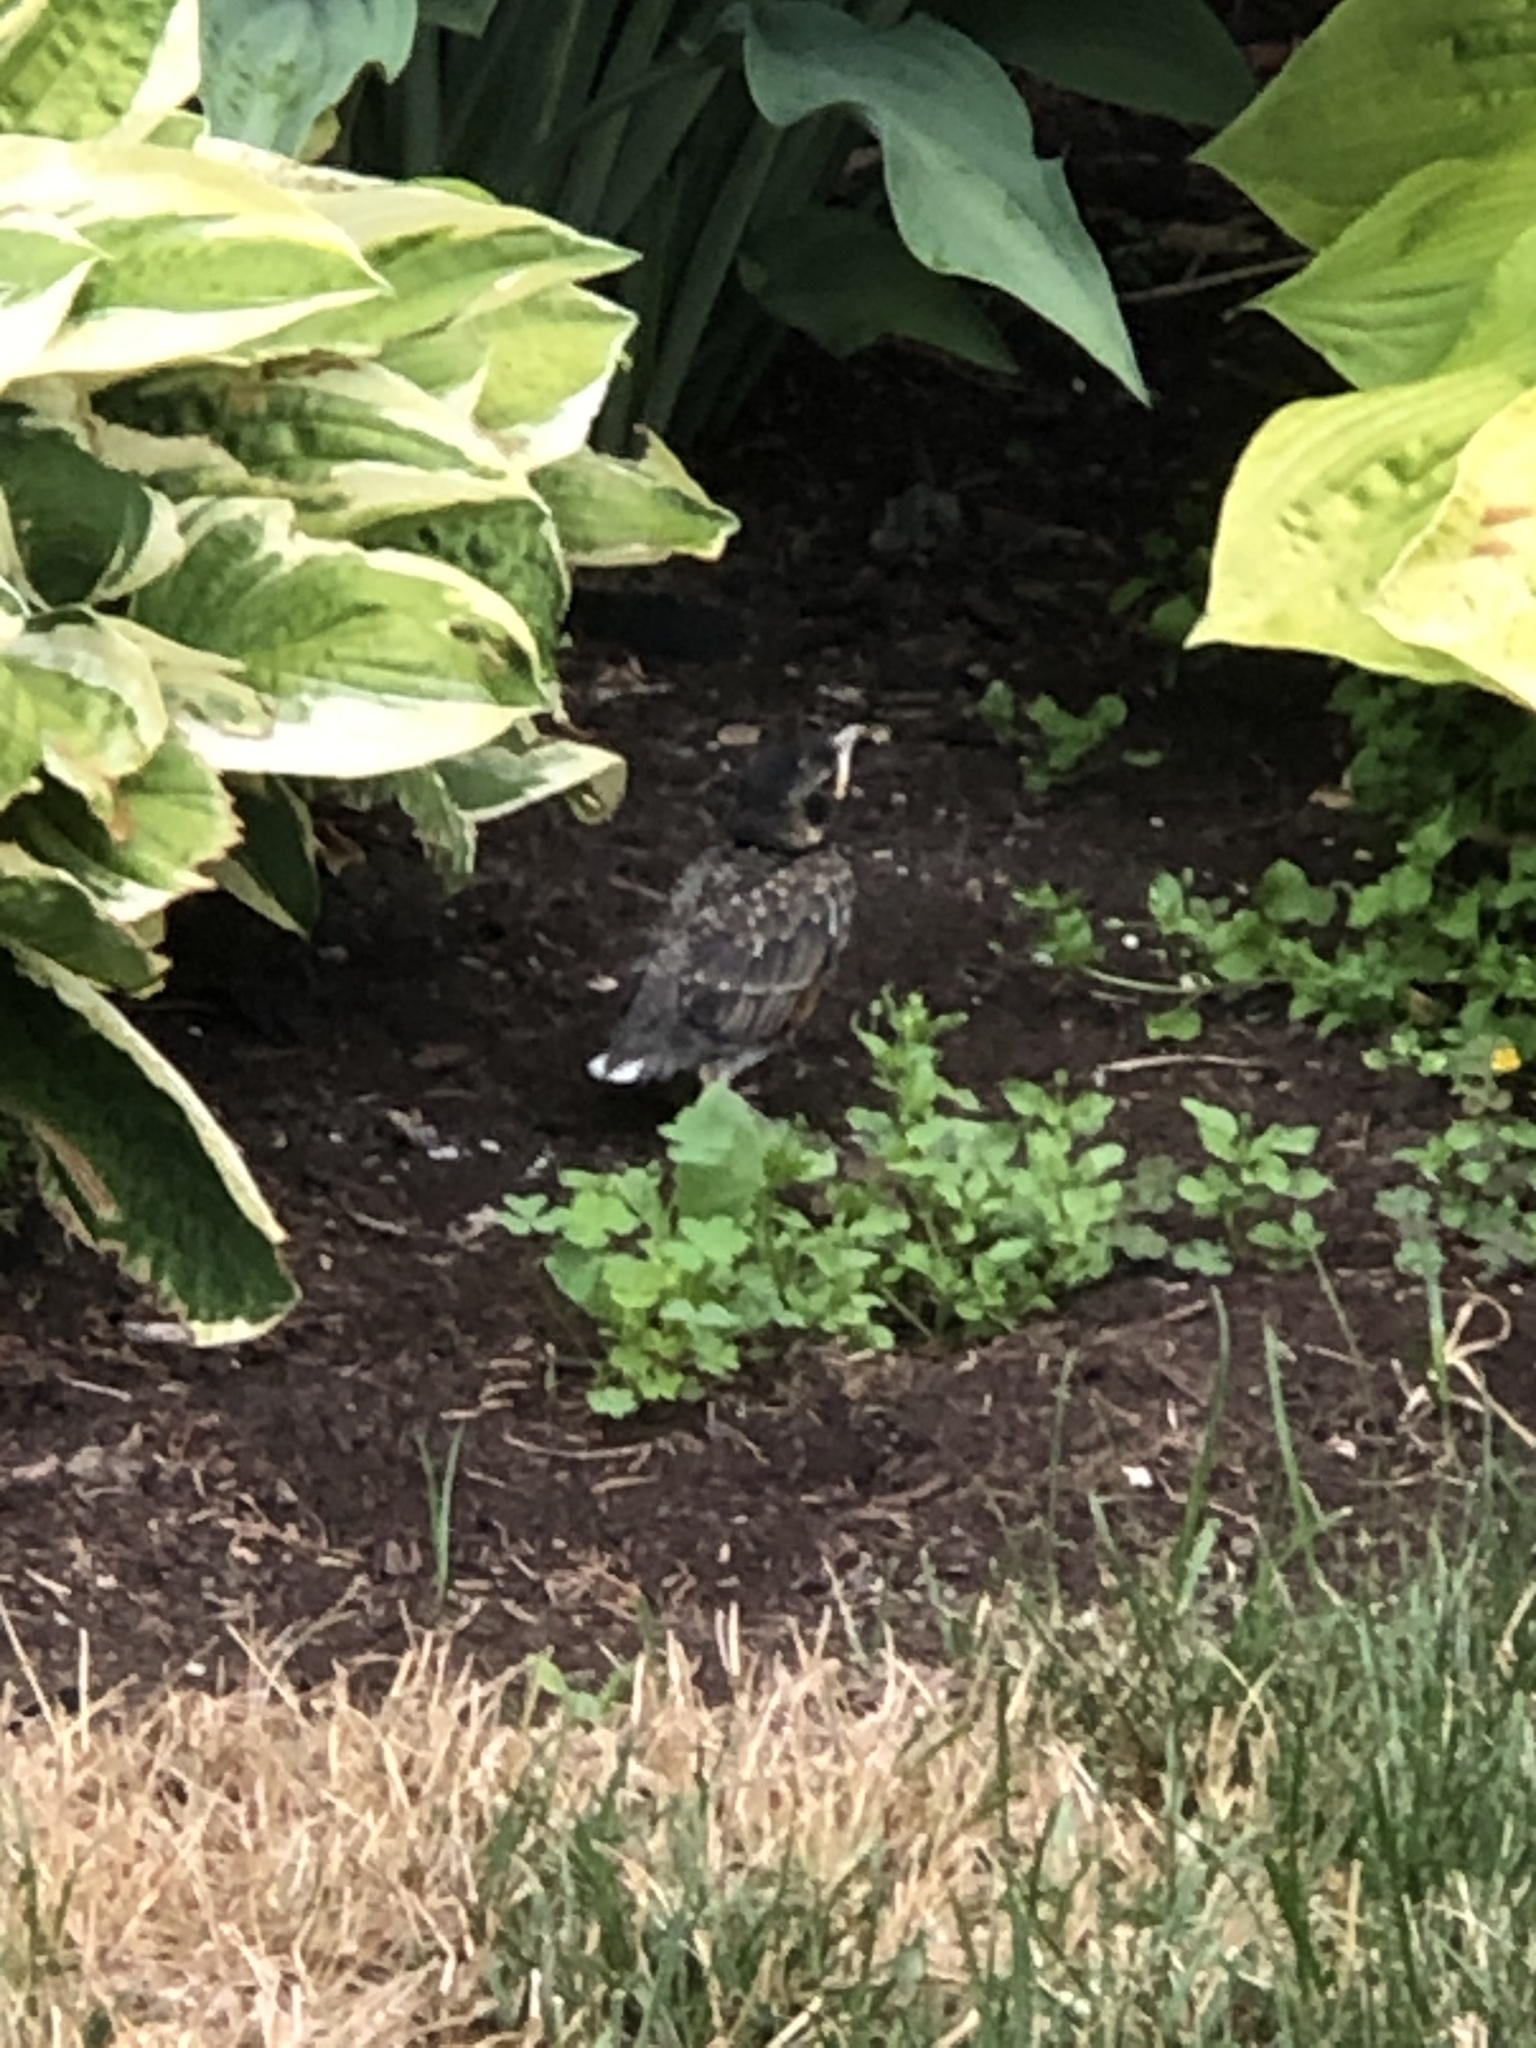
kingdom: Animalia
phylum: Chordata
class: Aves
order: Passeriformes
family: Turdidae
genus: Turdus
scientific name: Turdus migratorius
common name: American robin
